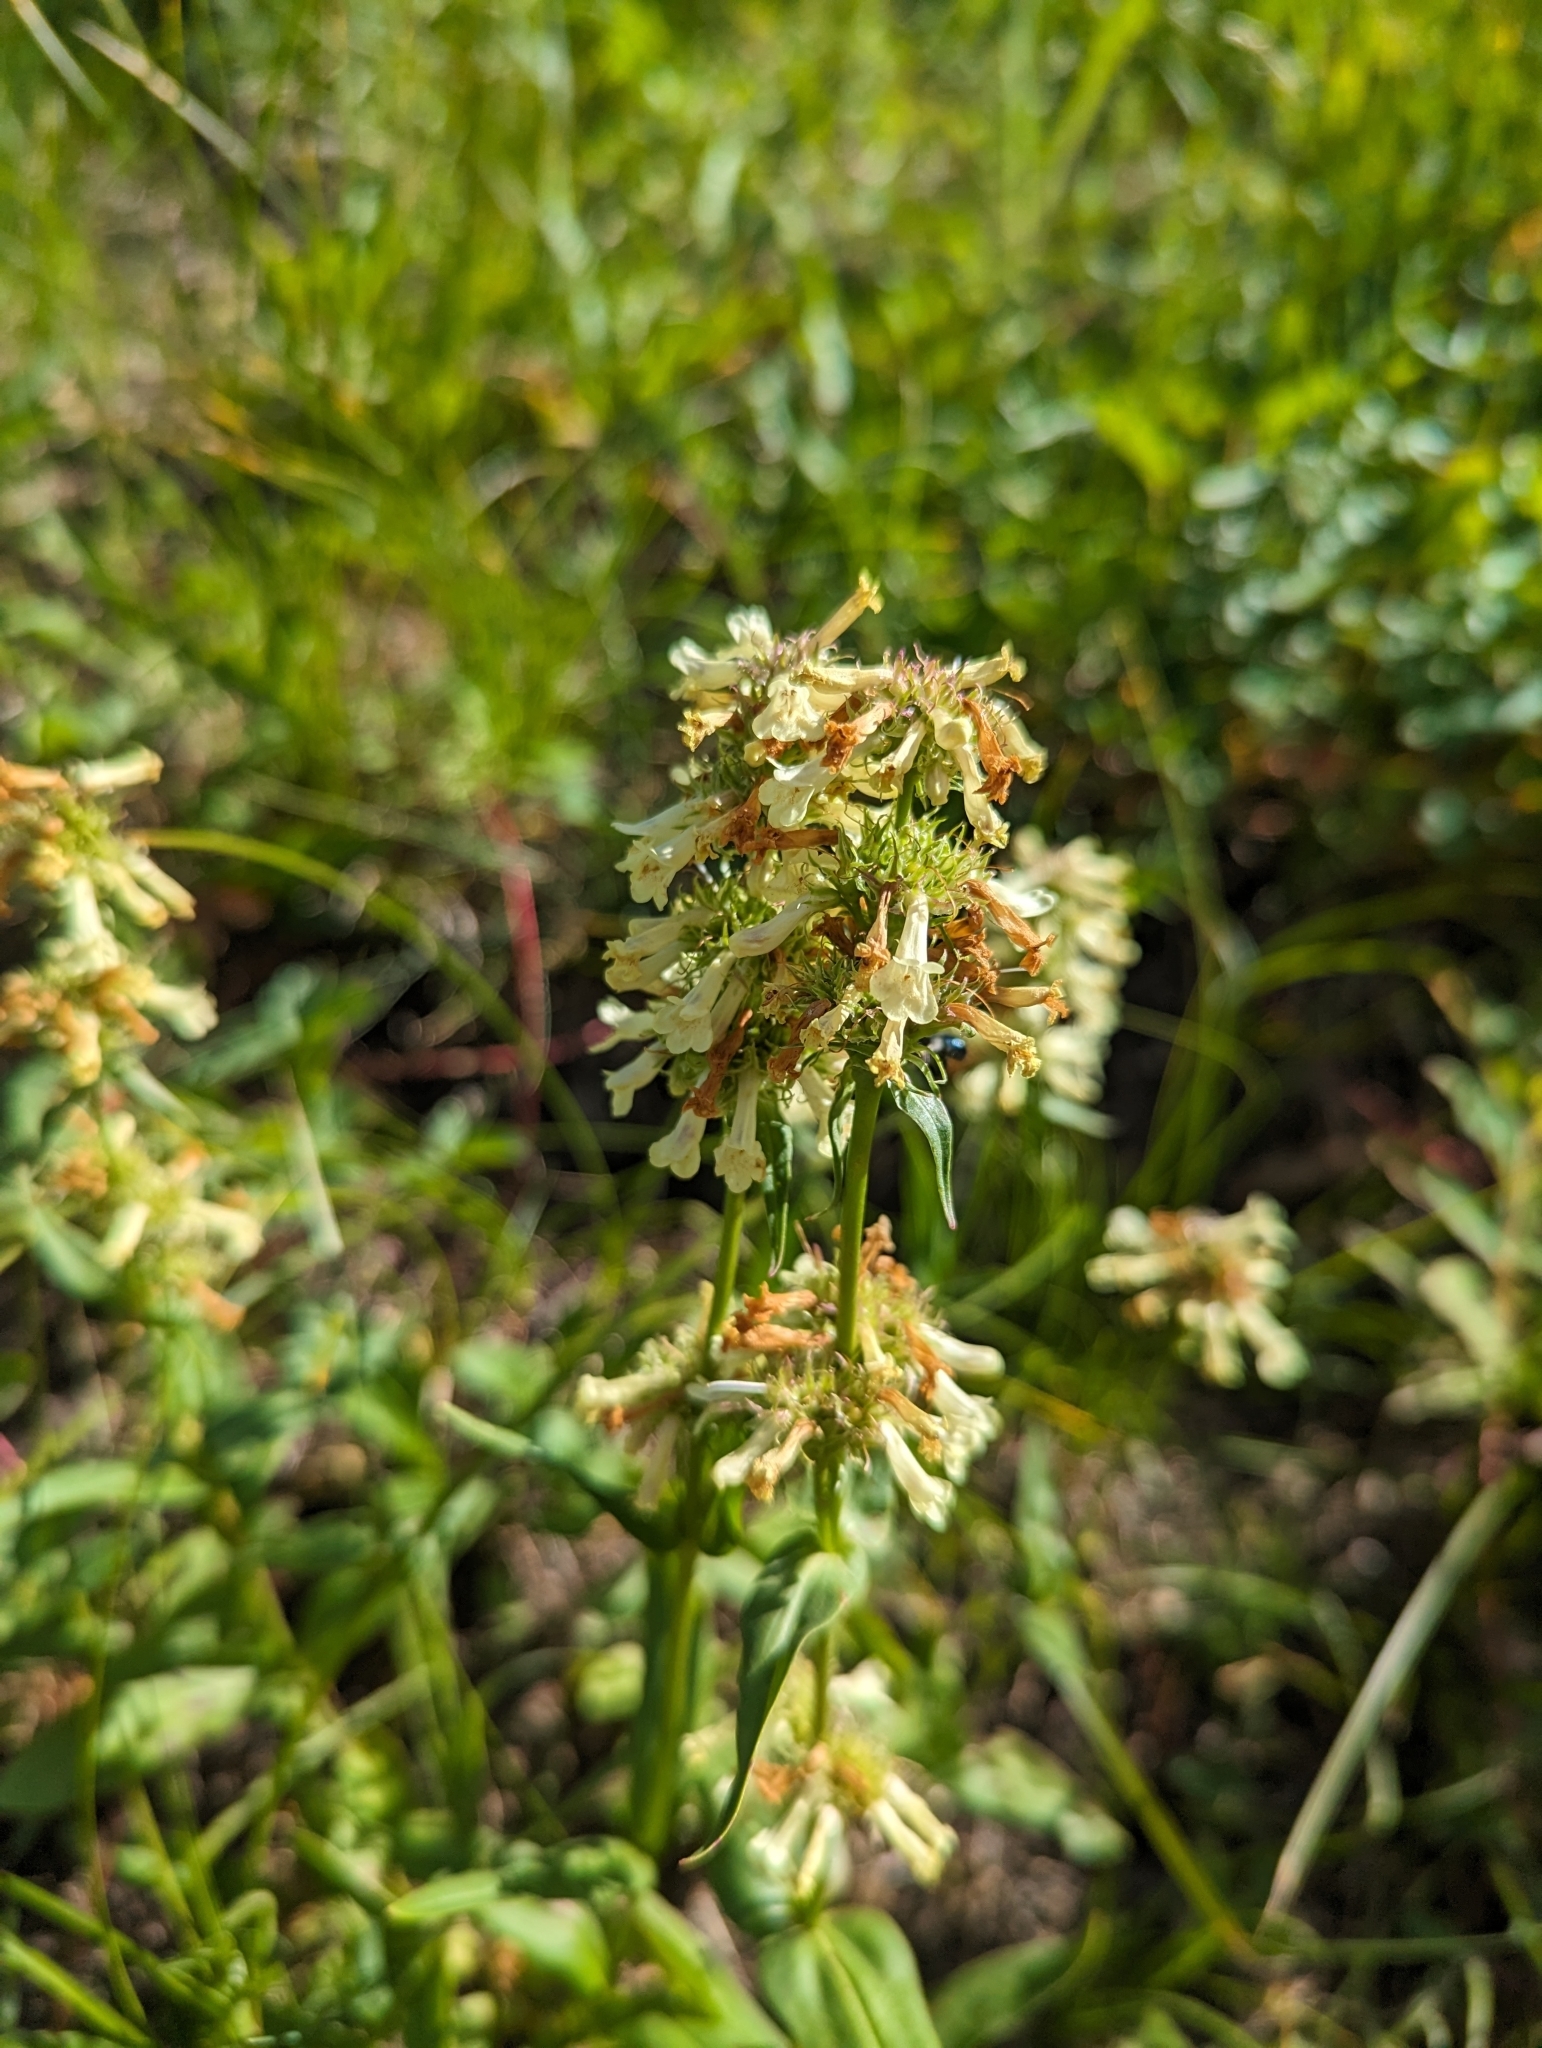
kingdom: Plantae
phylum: Tracheophyta
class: Magnoliopsida
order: Lamiales
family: Plantaginaceae
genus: Penstemon
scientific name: Penstemon confertus
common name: Lesser yellow beardtongue
